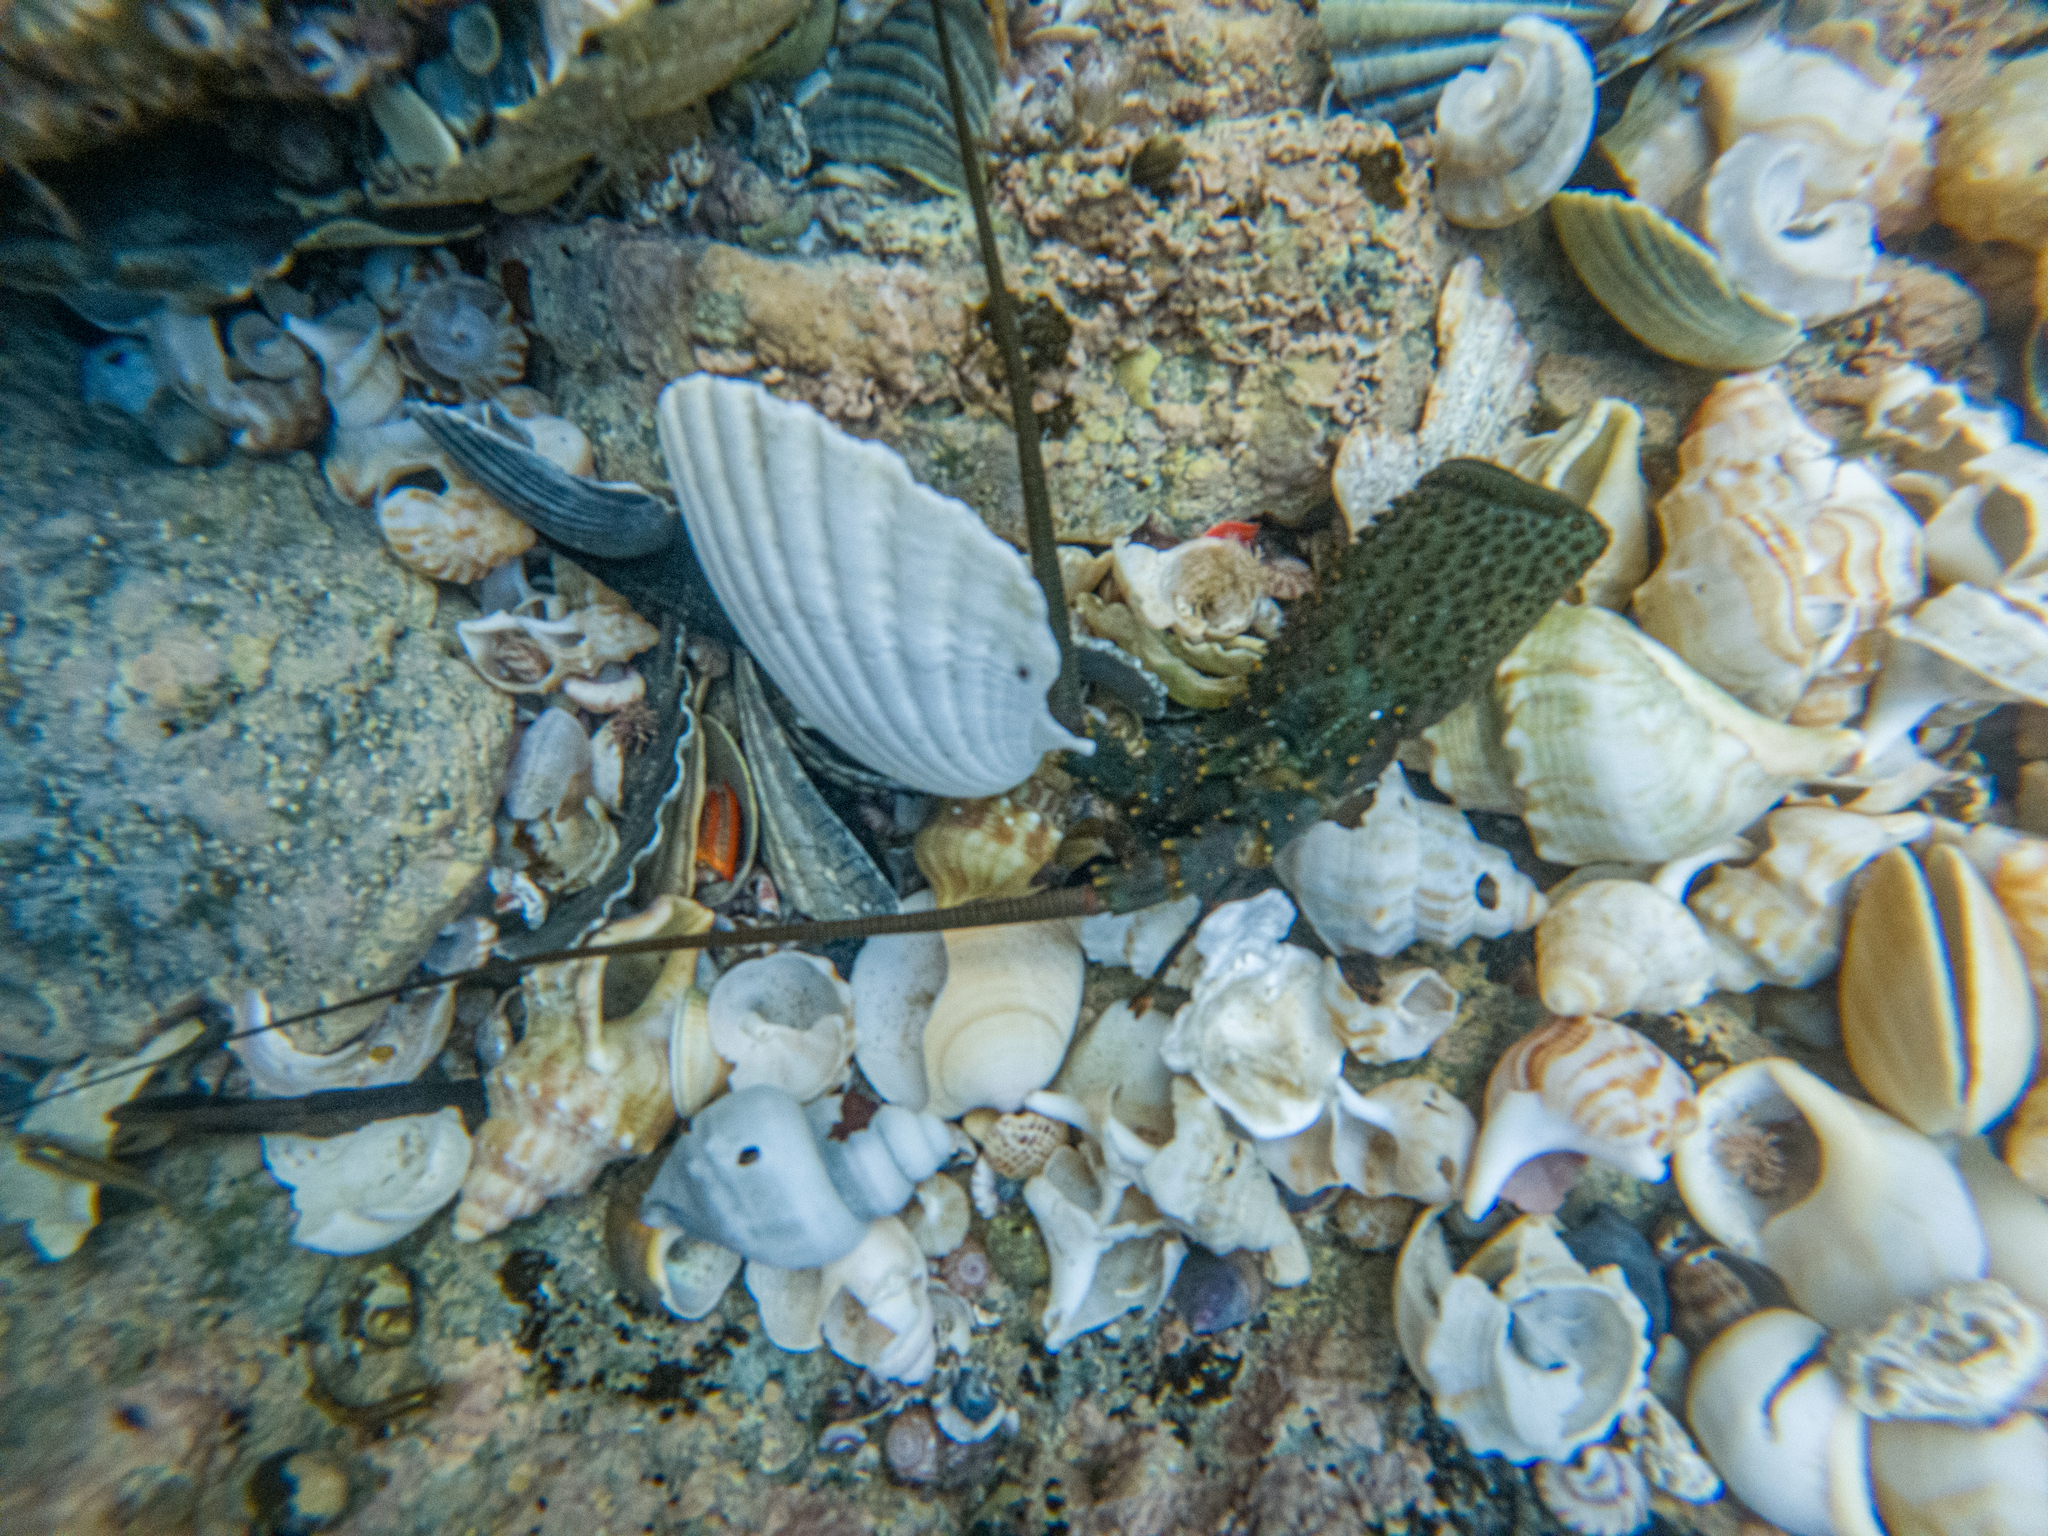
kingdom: Animalia
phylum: Arthropoda
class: Malacostraca
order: Decapoda
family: Palinuridae
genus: Sagmariasus
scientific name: Sagmariasus verreauxi
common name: Green rock lobster
